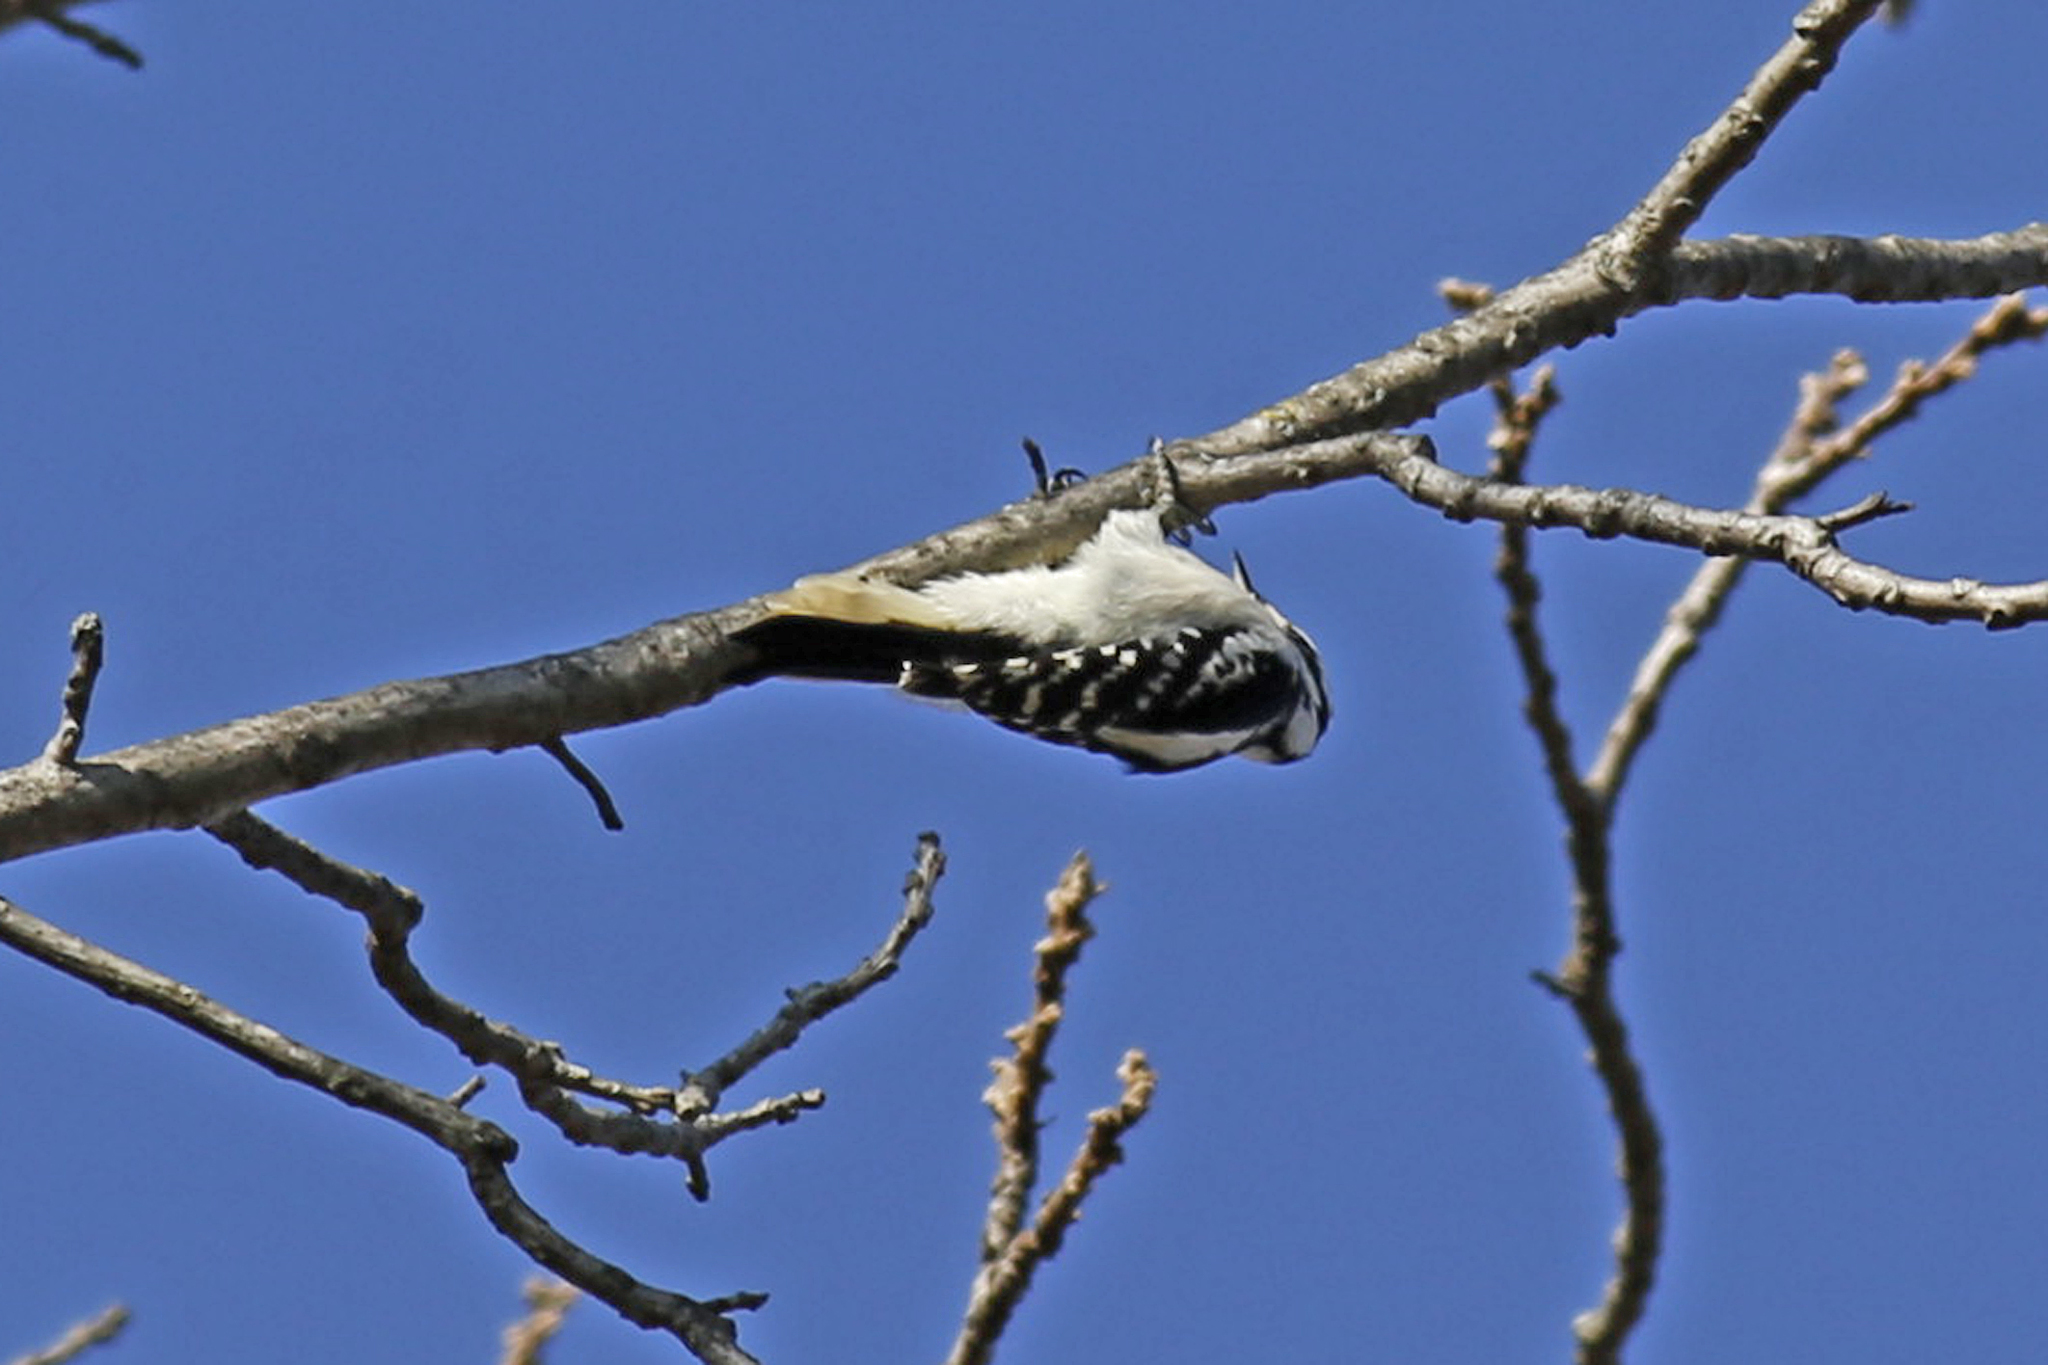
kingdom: Animalia
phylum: Chordata
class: Aves
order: Piciformes
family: Picidae
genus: Dryobates
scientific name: Dryobates pubescens
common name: Downy woodpecker
